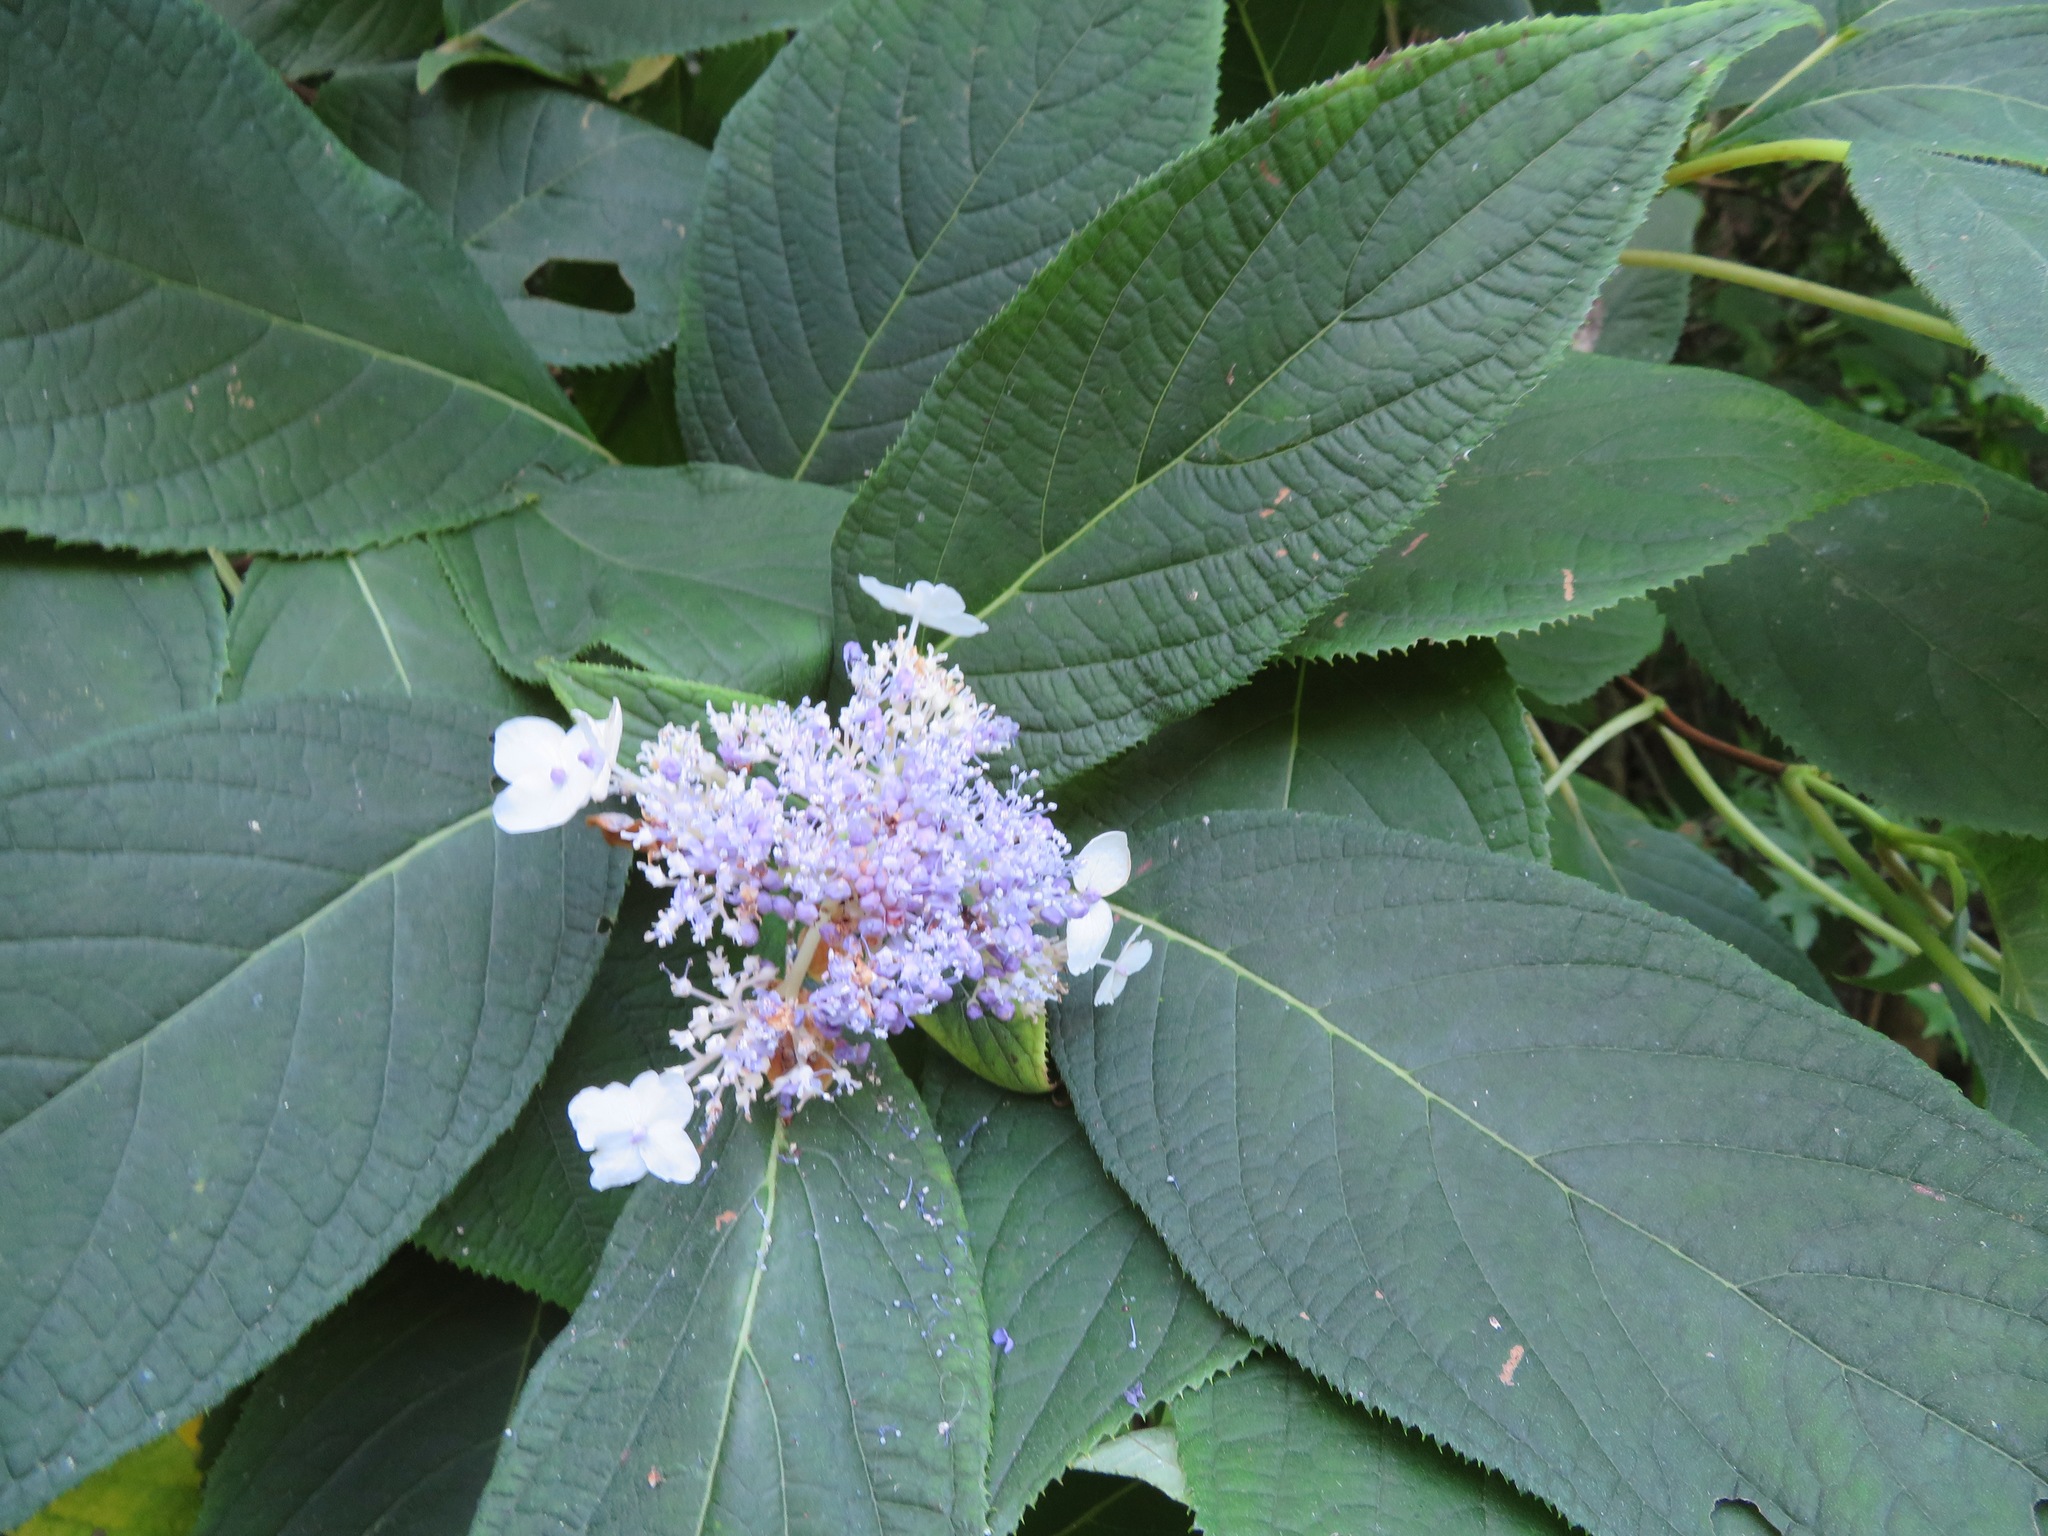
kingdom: Plantae
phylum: Tracheophyta
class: Magnoliopsida
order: Cornales
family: Hydrangeaceae
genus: Hydrangea
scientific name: Hydrangea involucrata
